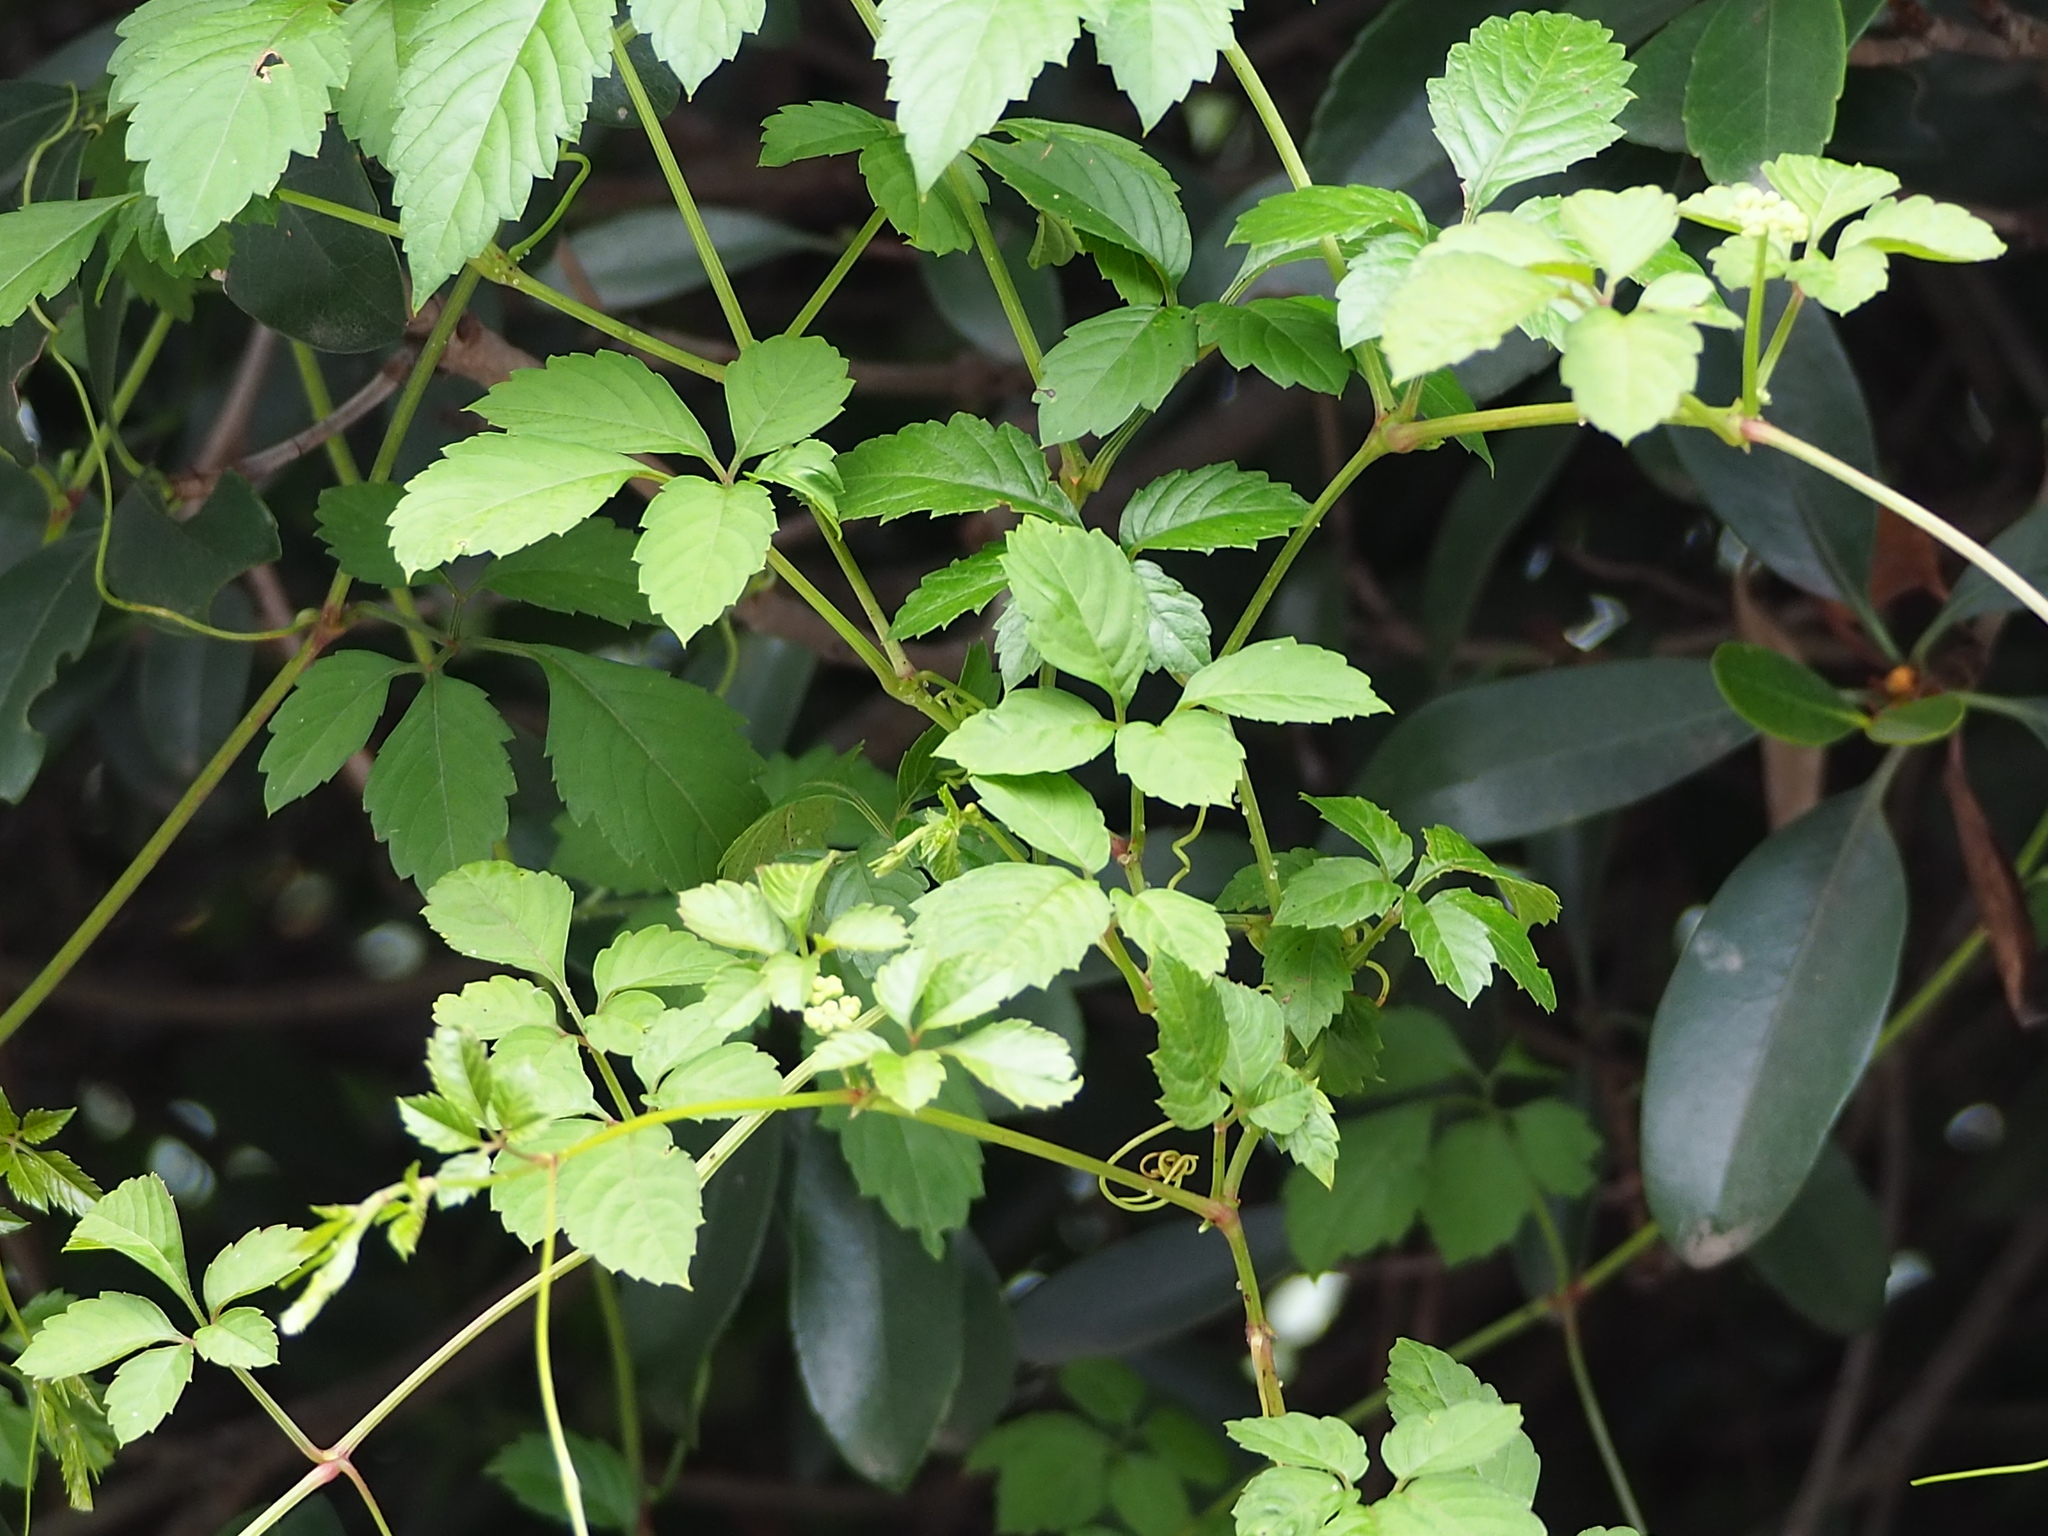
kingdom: Plantae
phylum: Tracheophyta
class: Magnoliopsida
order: Vitales
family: Vitaceae
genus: Causonis
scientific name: Causonis japonica
